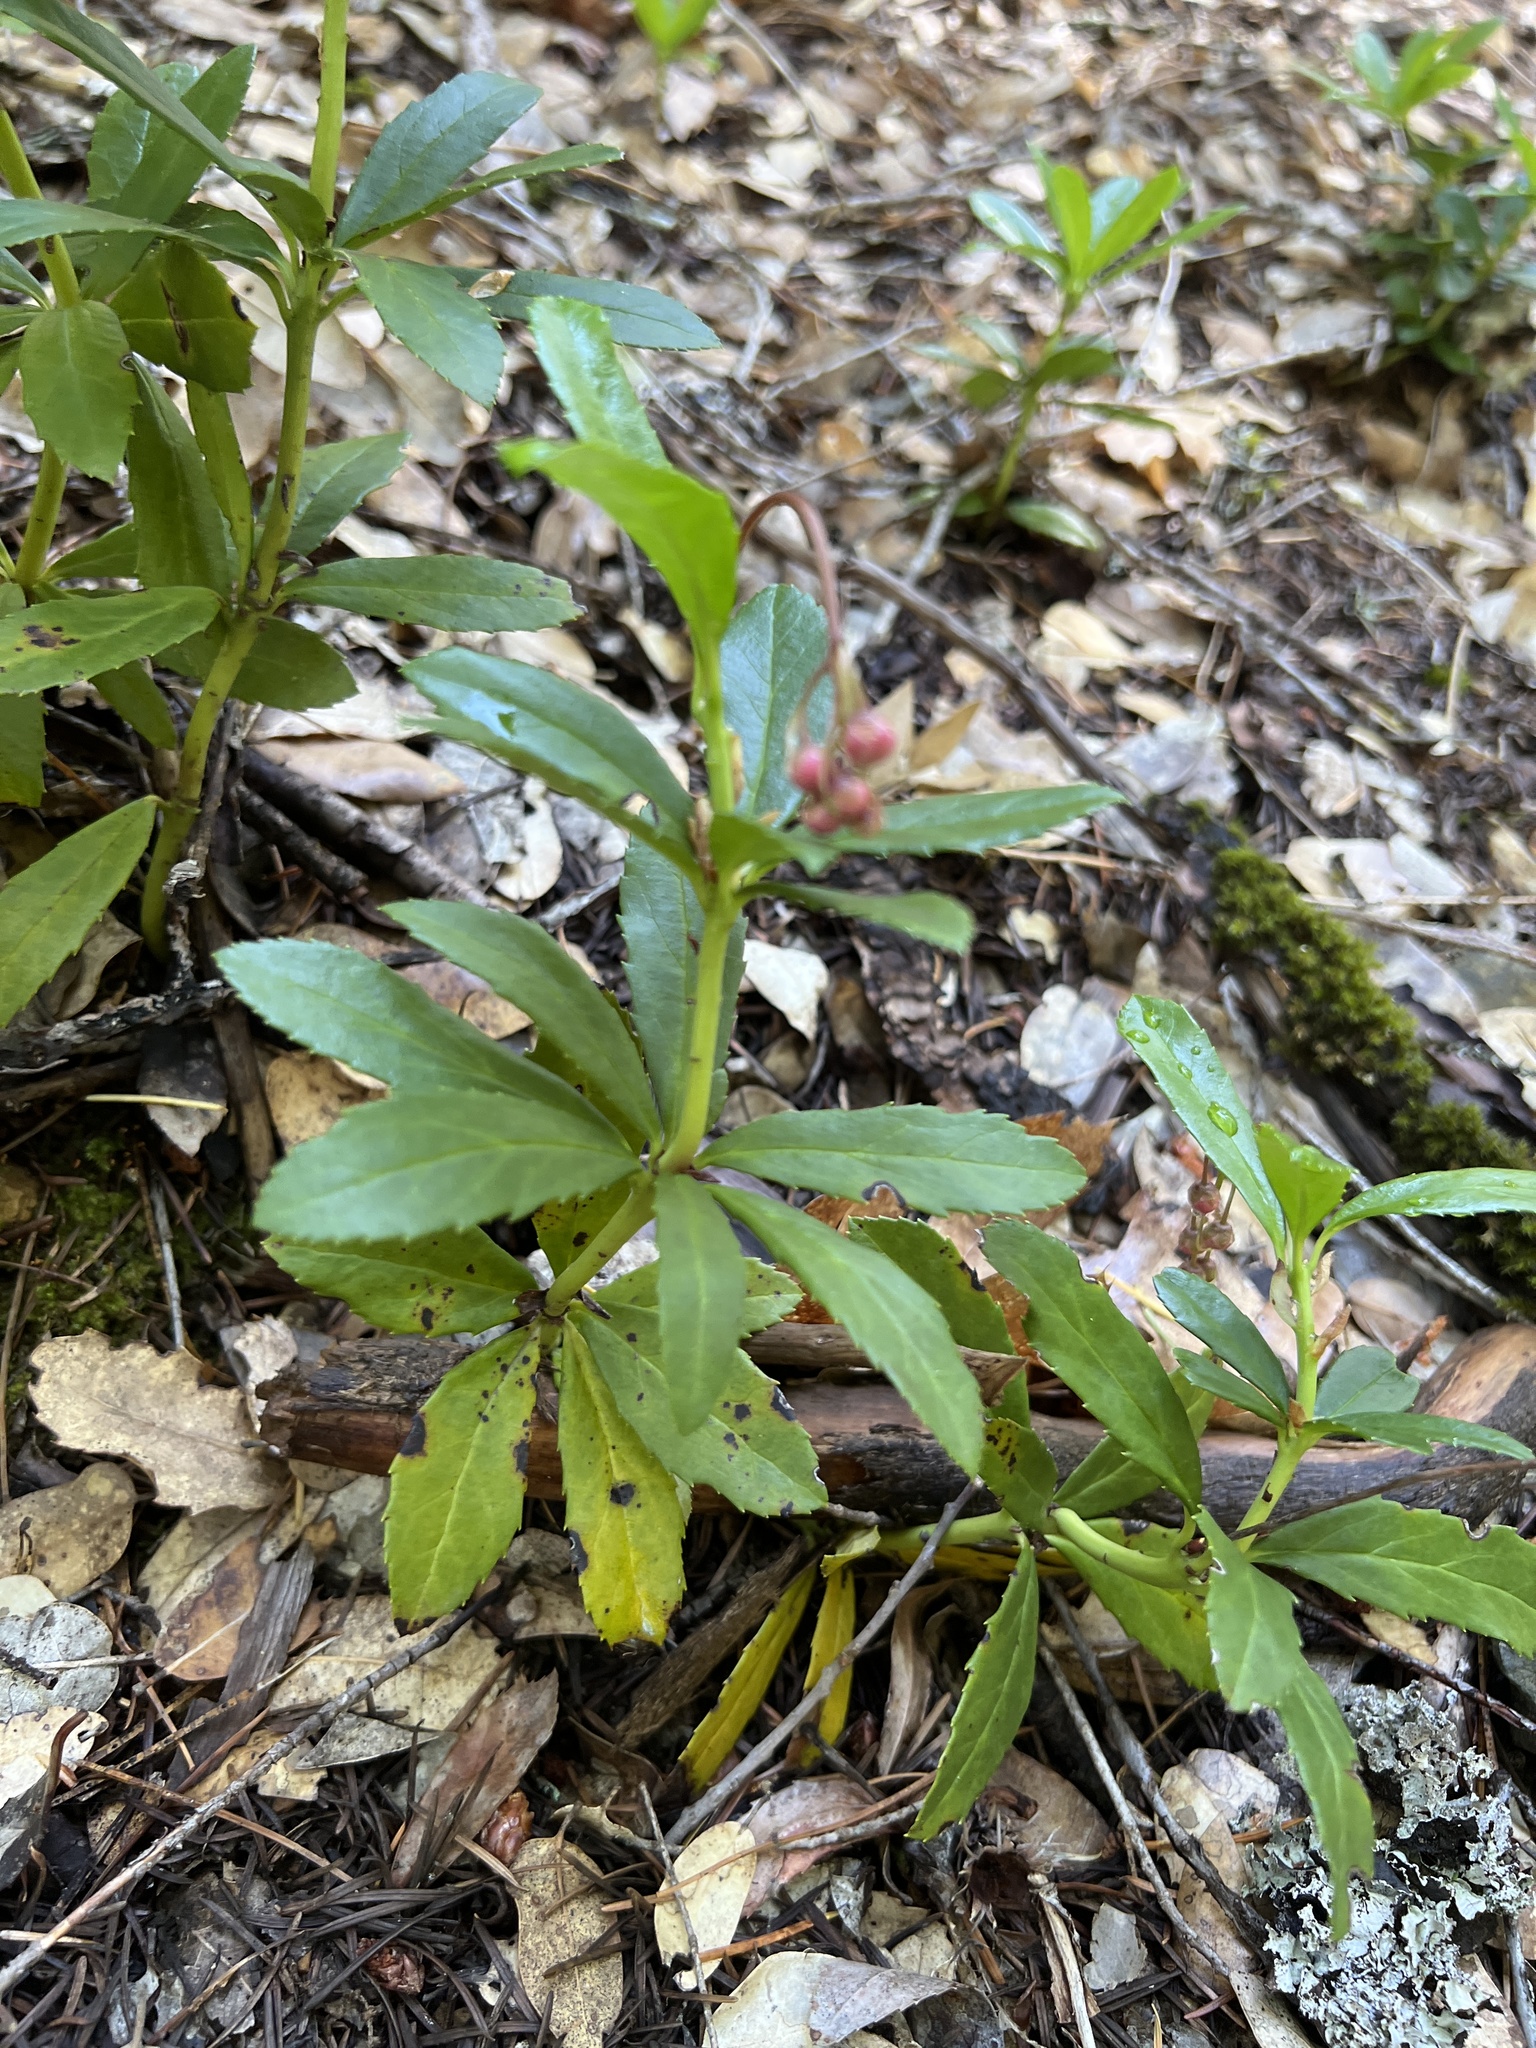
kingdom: Plantae
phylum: Tracheophyta
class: Magnoliopsida
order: Ericales
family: Ericaceae
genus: Chimaphila
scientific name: Chimaphila umbellata
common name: Pipsissewa
